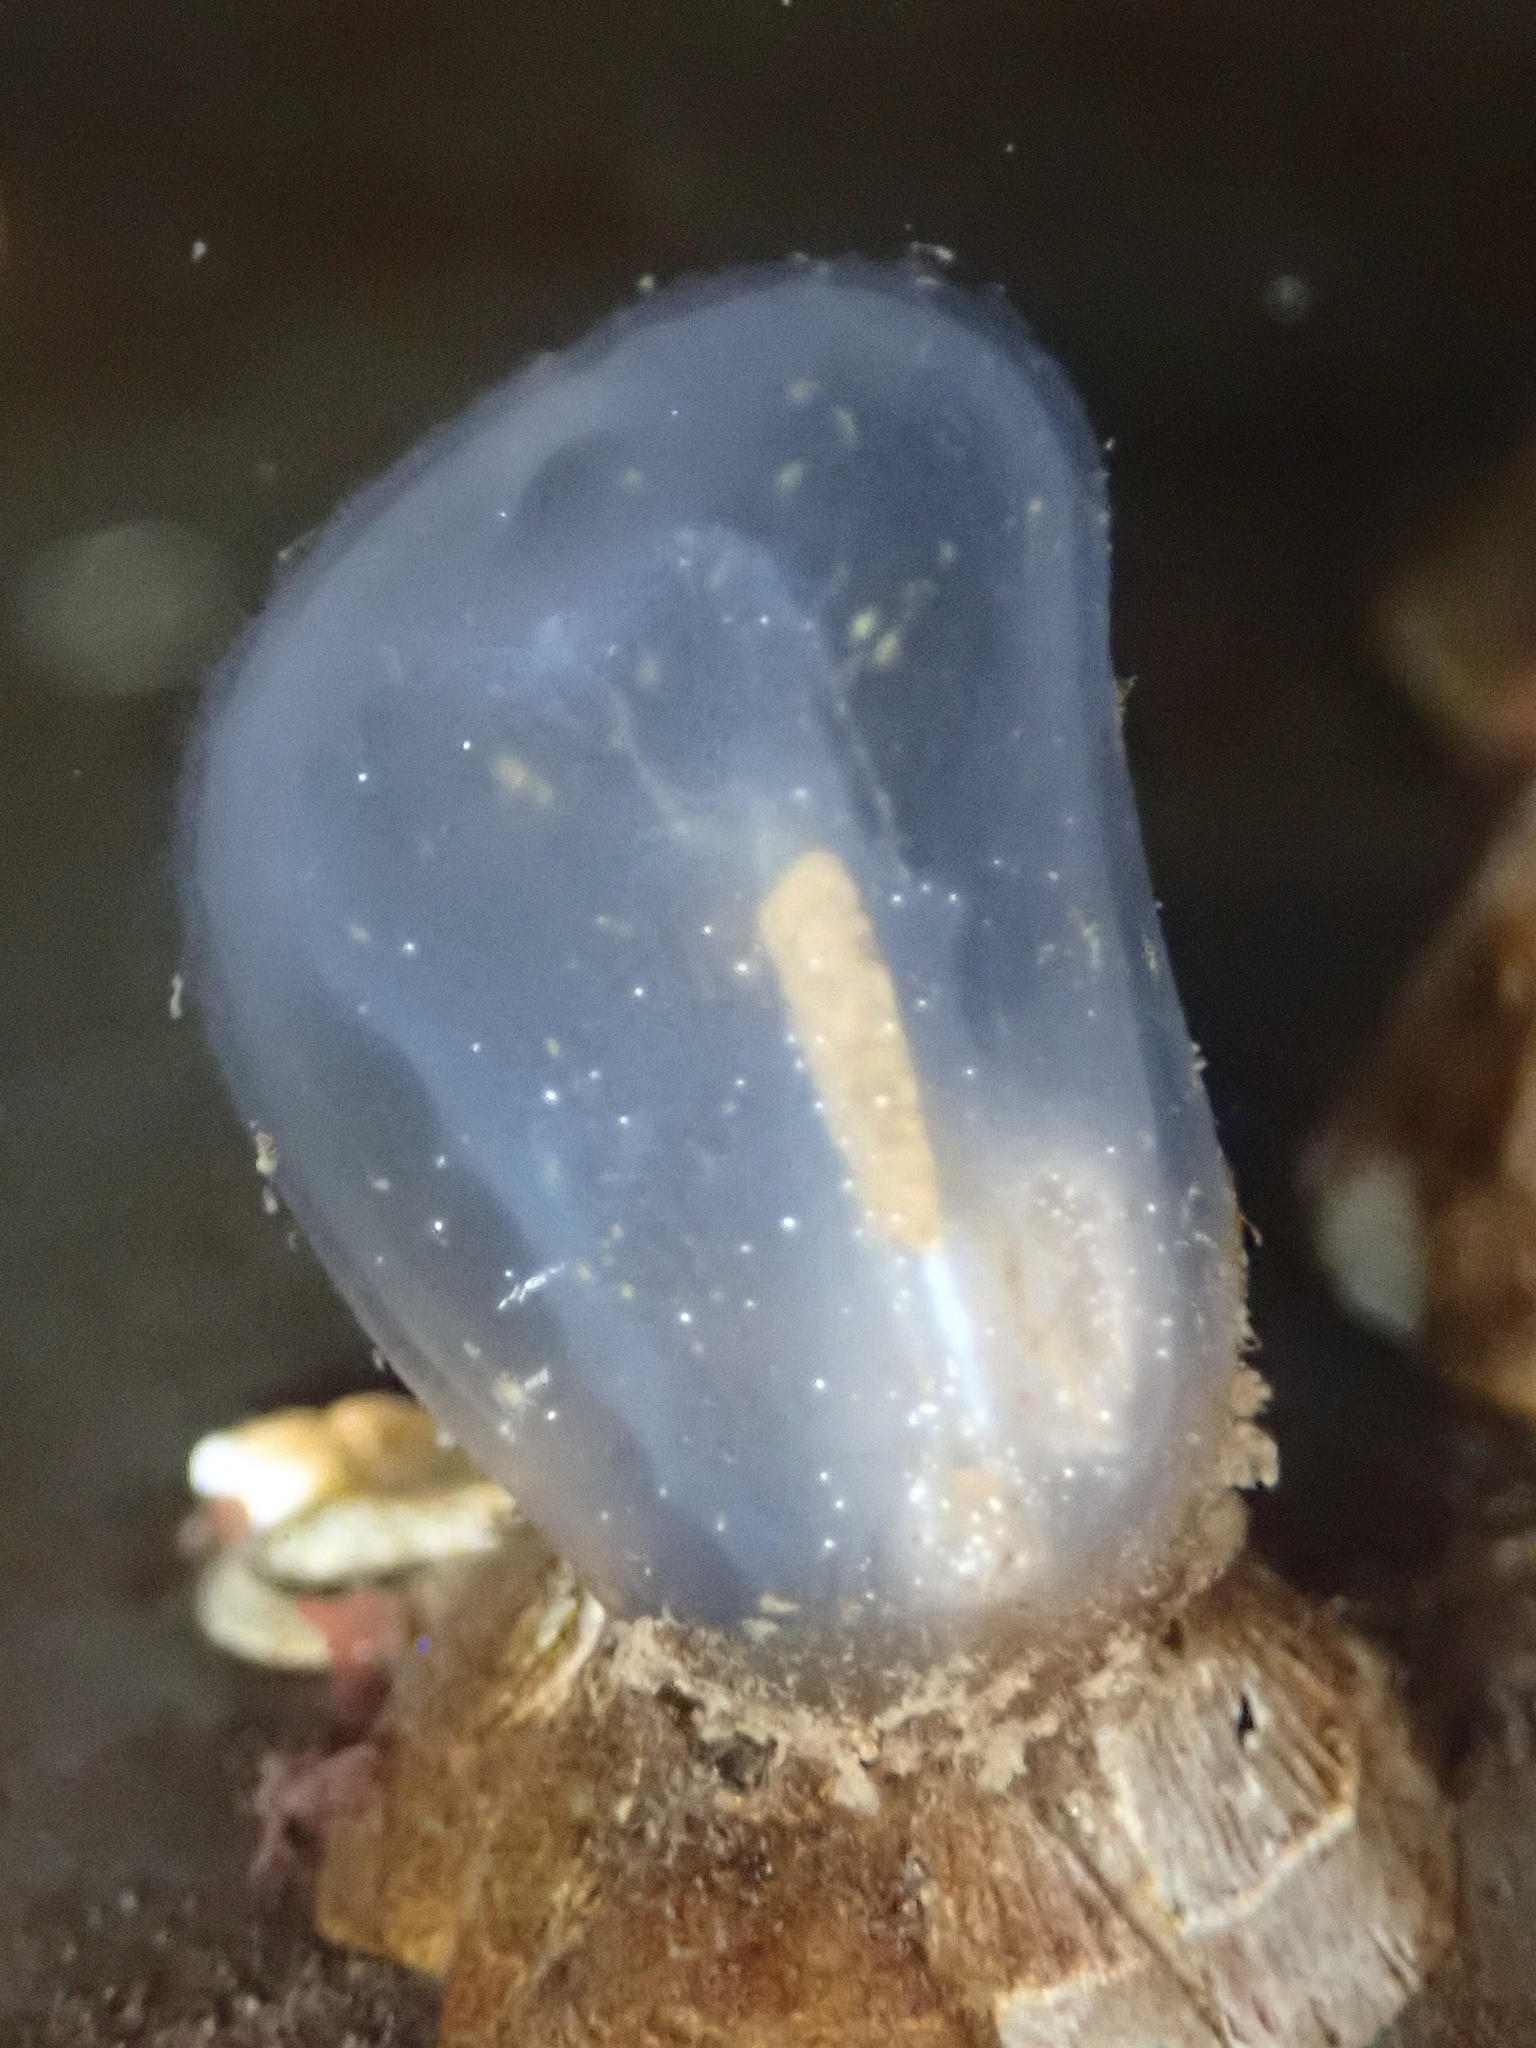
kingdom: Animalia
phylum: Chordata
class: Ascidiacea
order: Phlebobranchia
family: Corellidae
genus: Corella
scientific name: Corella inflata
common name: Ascidian
